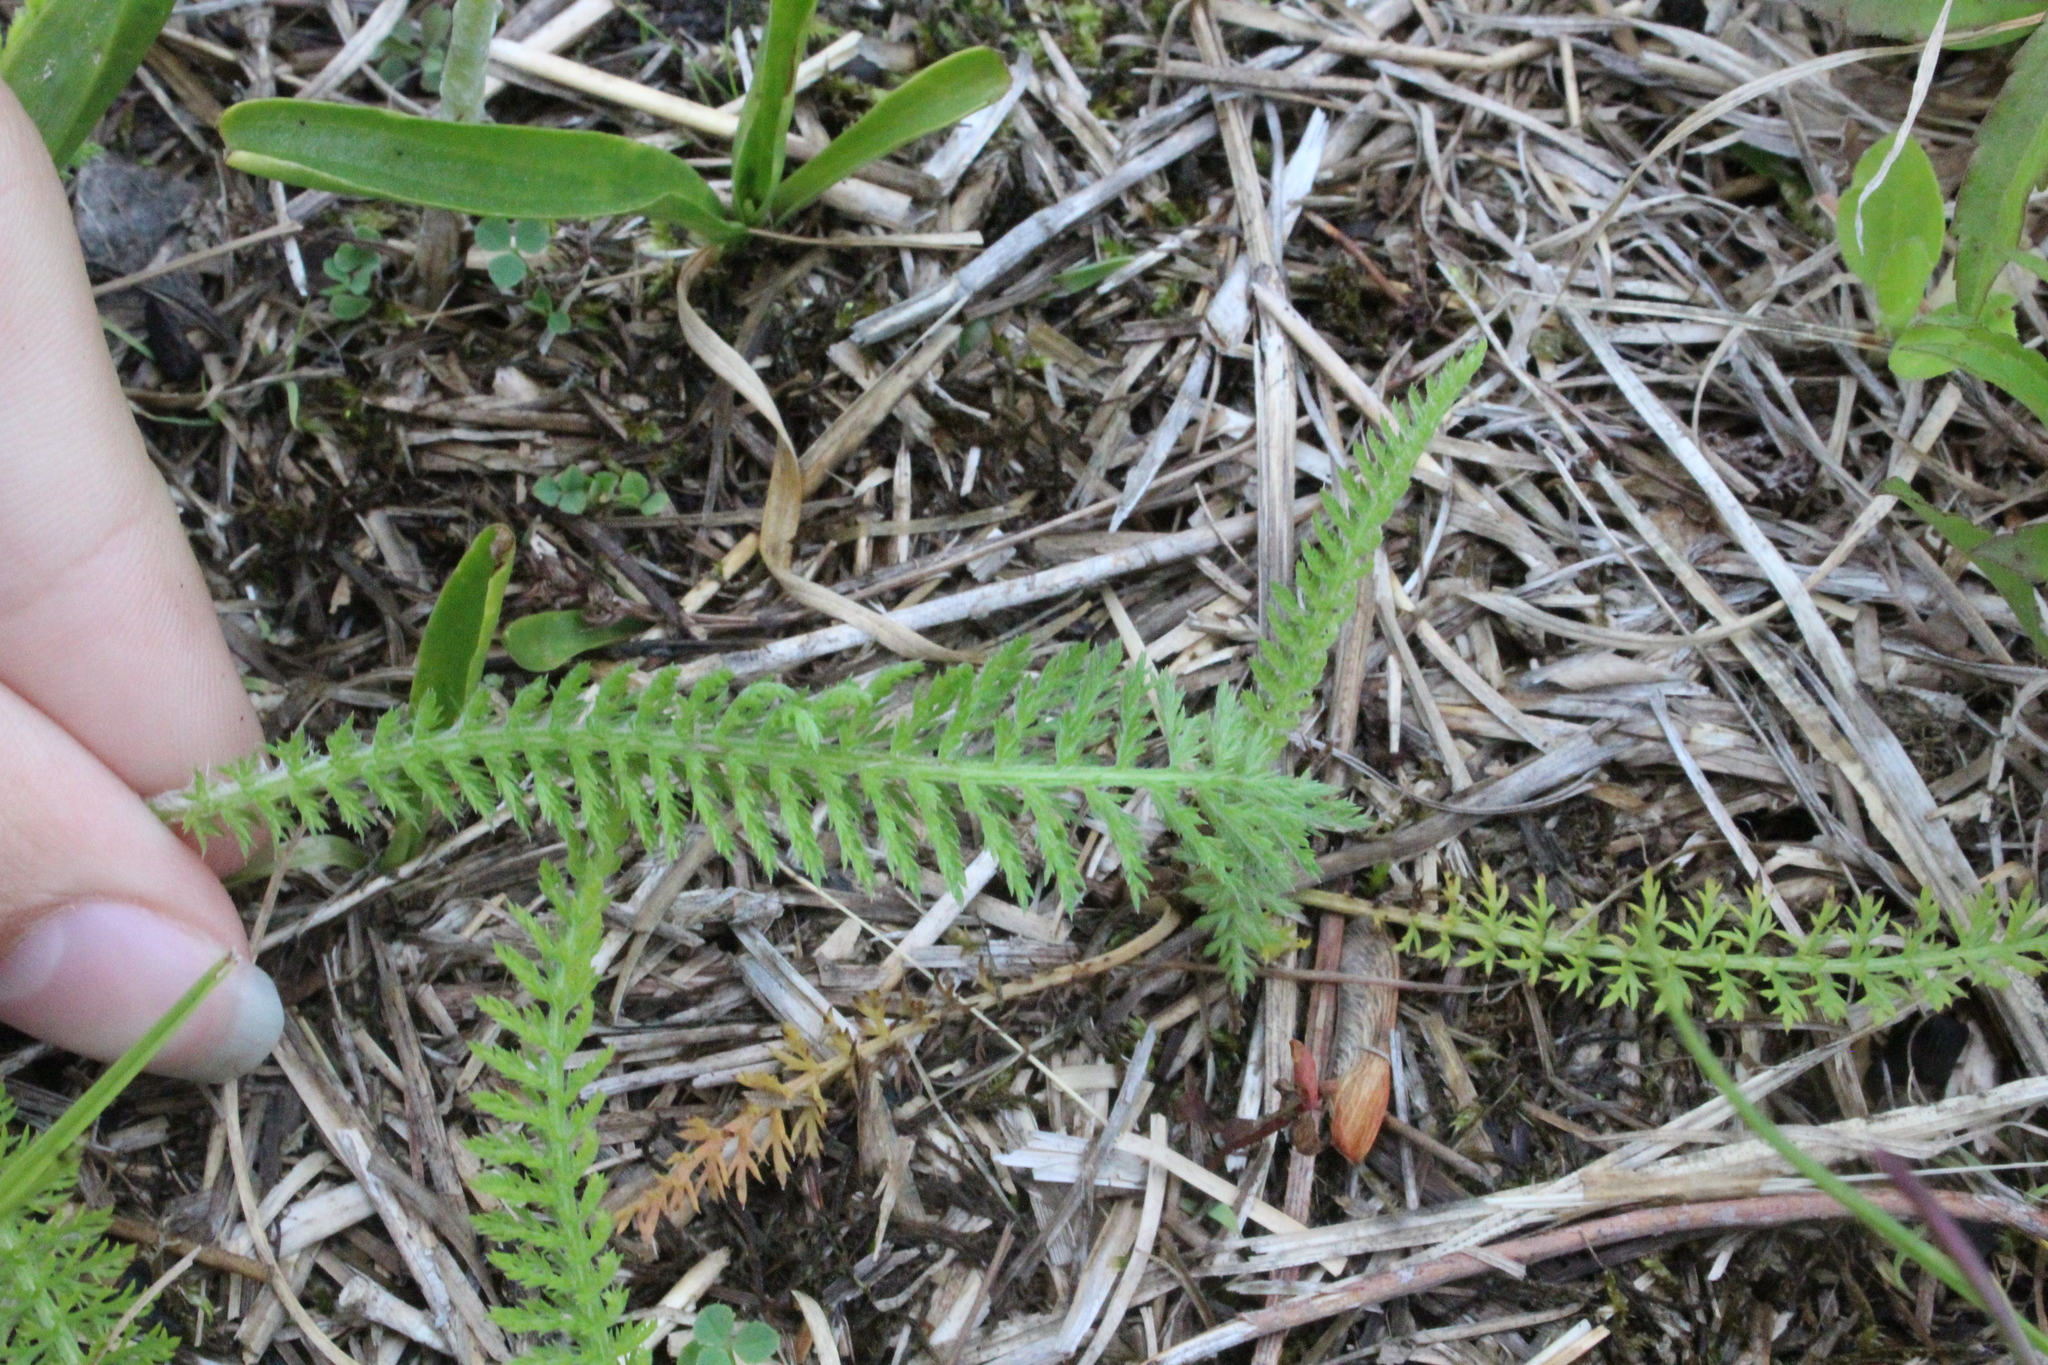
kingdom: Plantae
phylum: Tracheophyta
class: Magnoliopsida
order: Asterales
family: Asteraceae
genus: Achillea
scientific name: Achillea millefolium
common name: Yarrow
